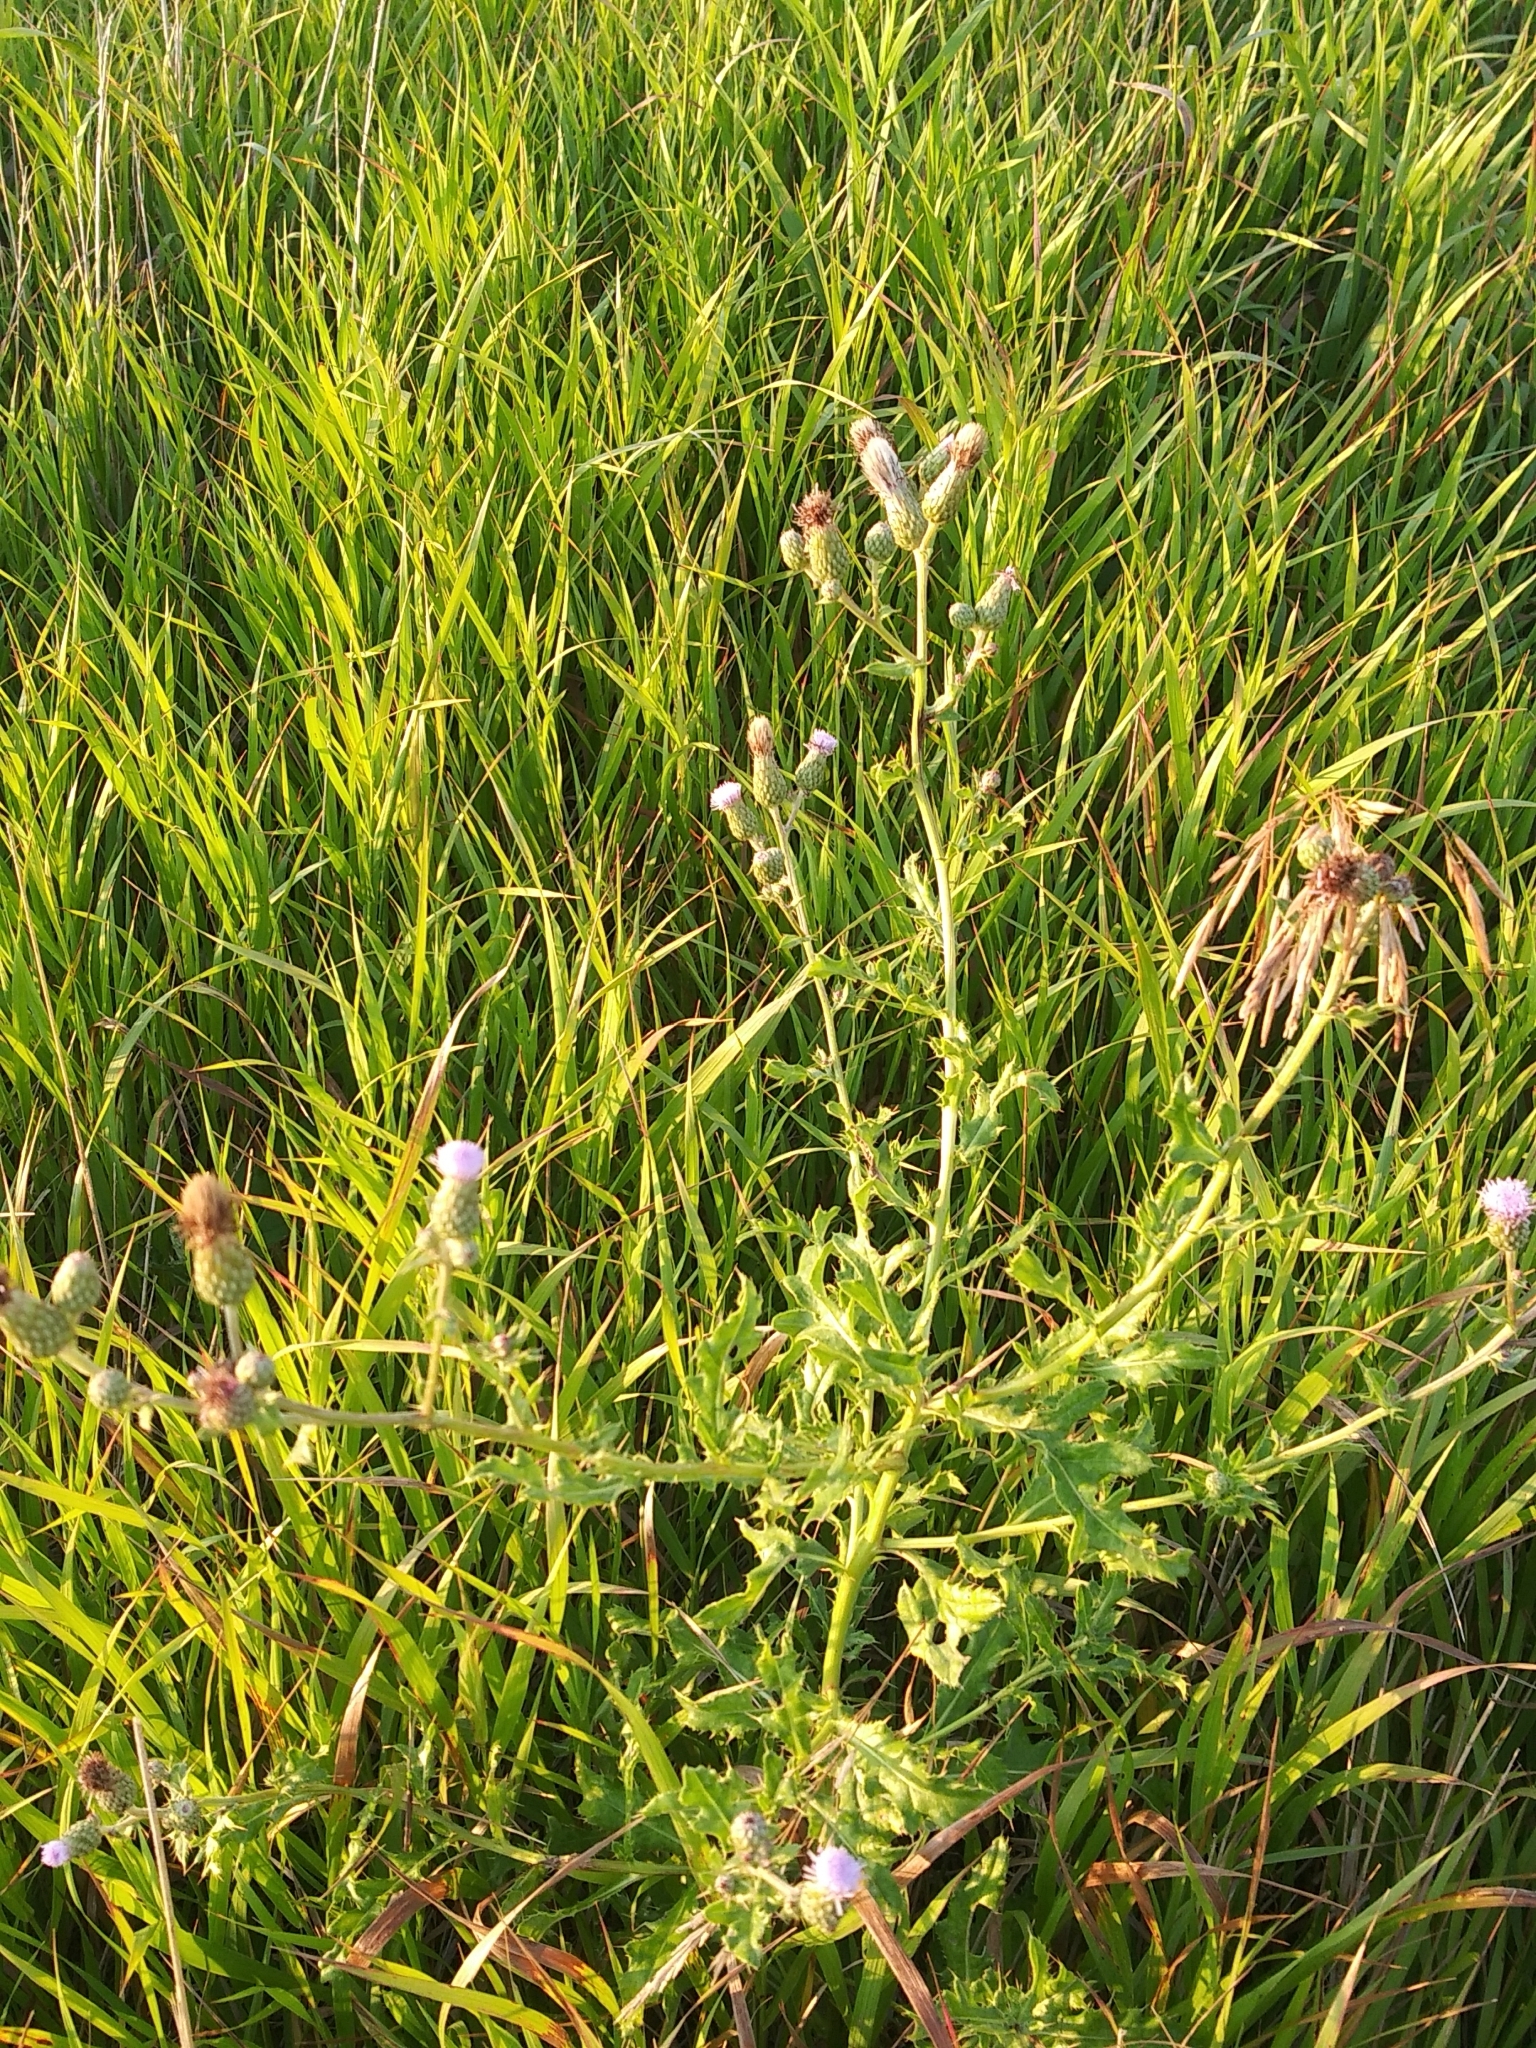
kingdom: Plantae
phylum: Tracheophyta
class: Magnoliopsida
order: Asterales
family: Asteraceae
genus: Cirsium
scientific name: Cirsium arvense
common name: Creeping thistle
